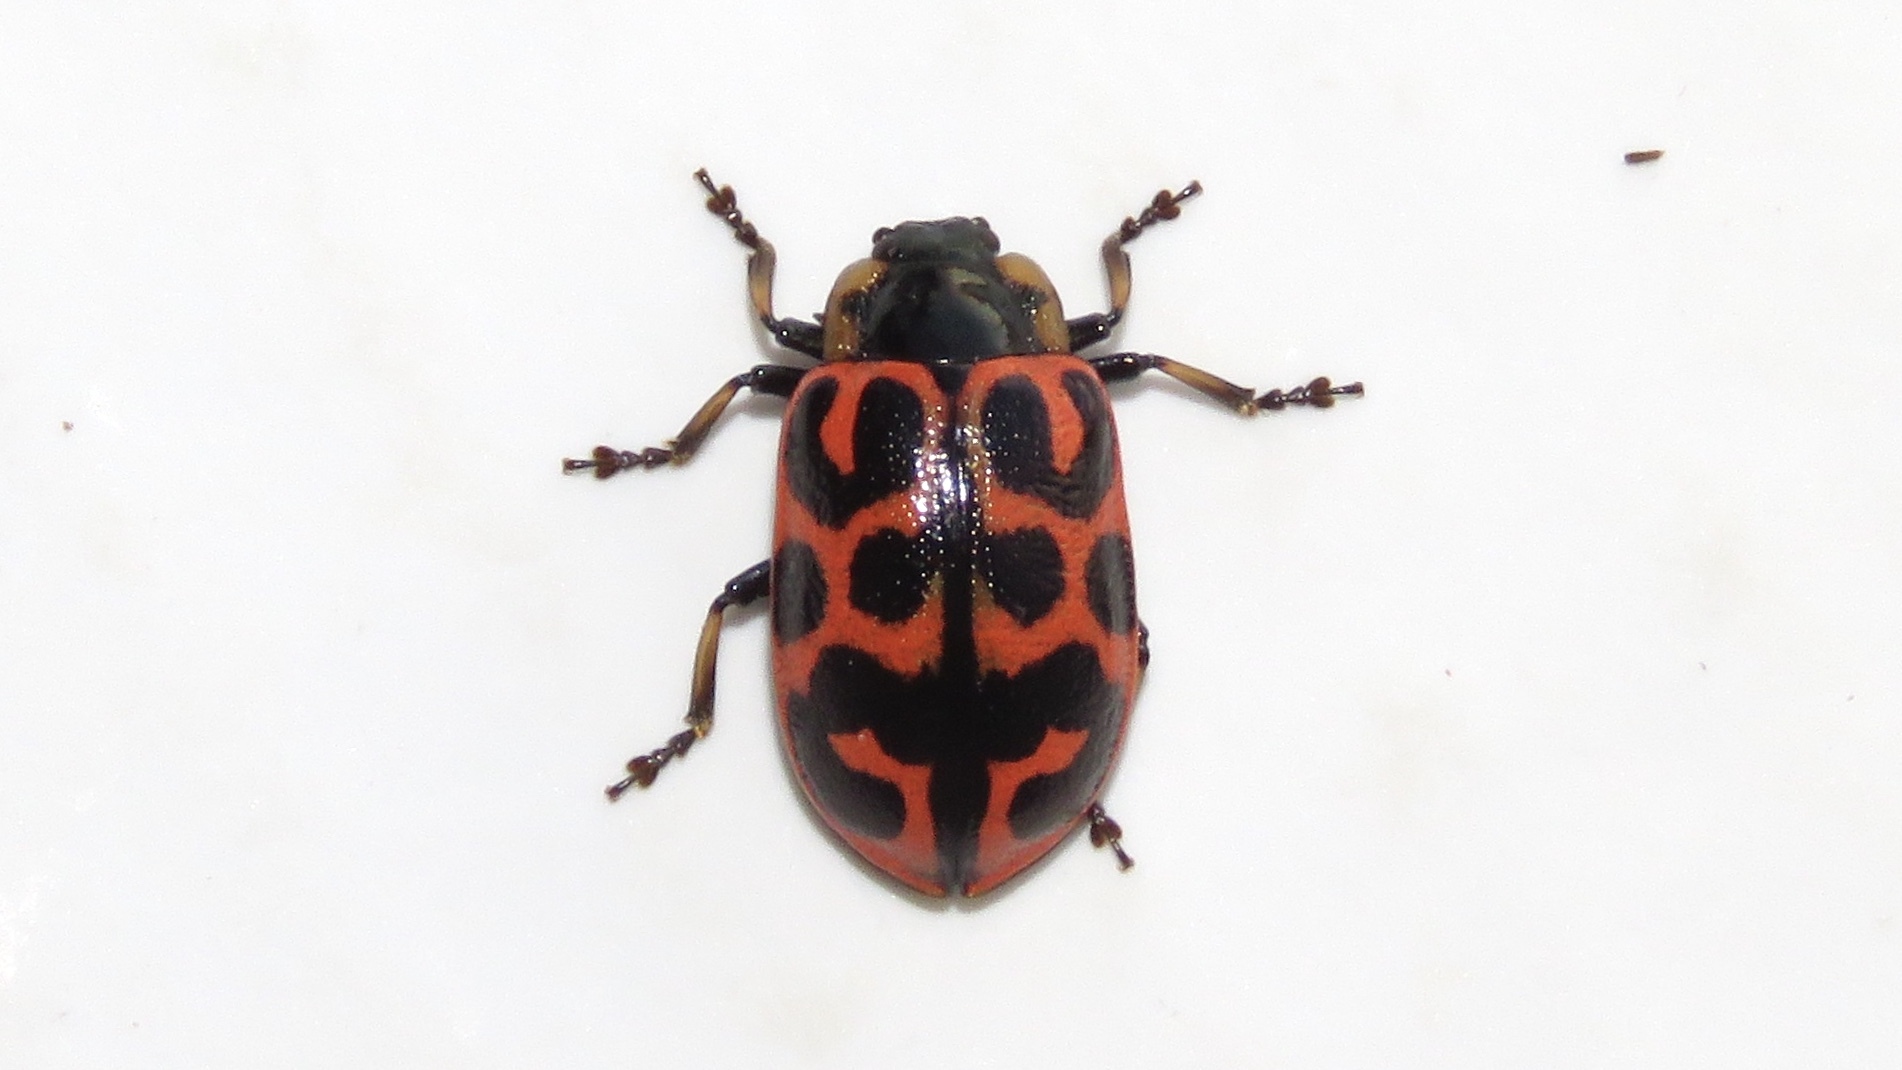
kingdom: Animalia
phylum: Arthropoda
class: Insecta
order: Coleoptera
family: Chrysomelidae
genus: Chrysomela
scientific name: Chrysomela knabi
